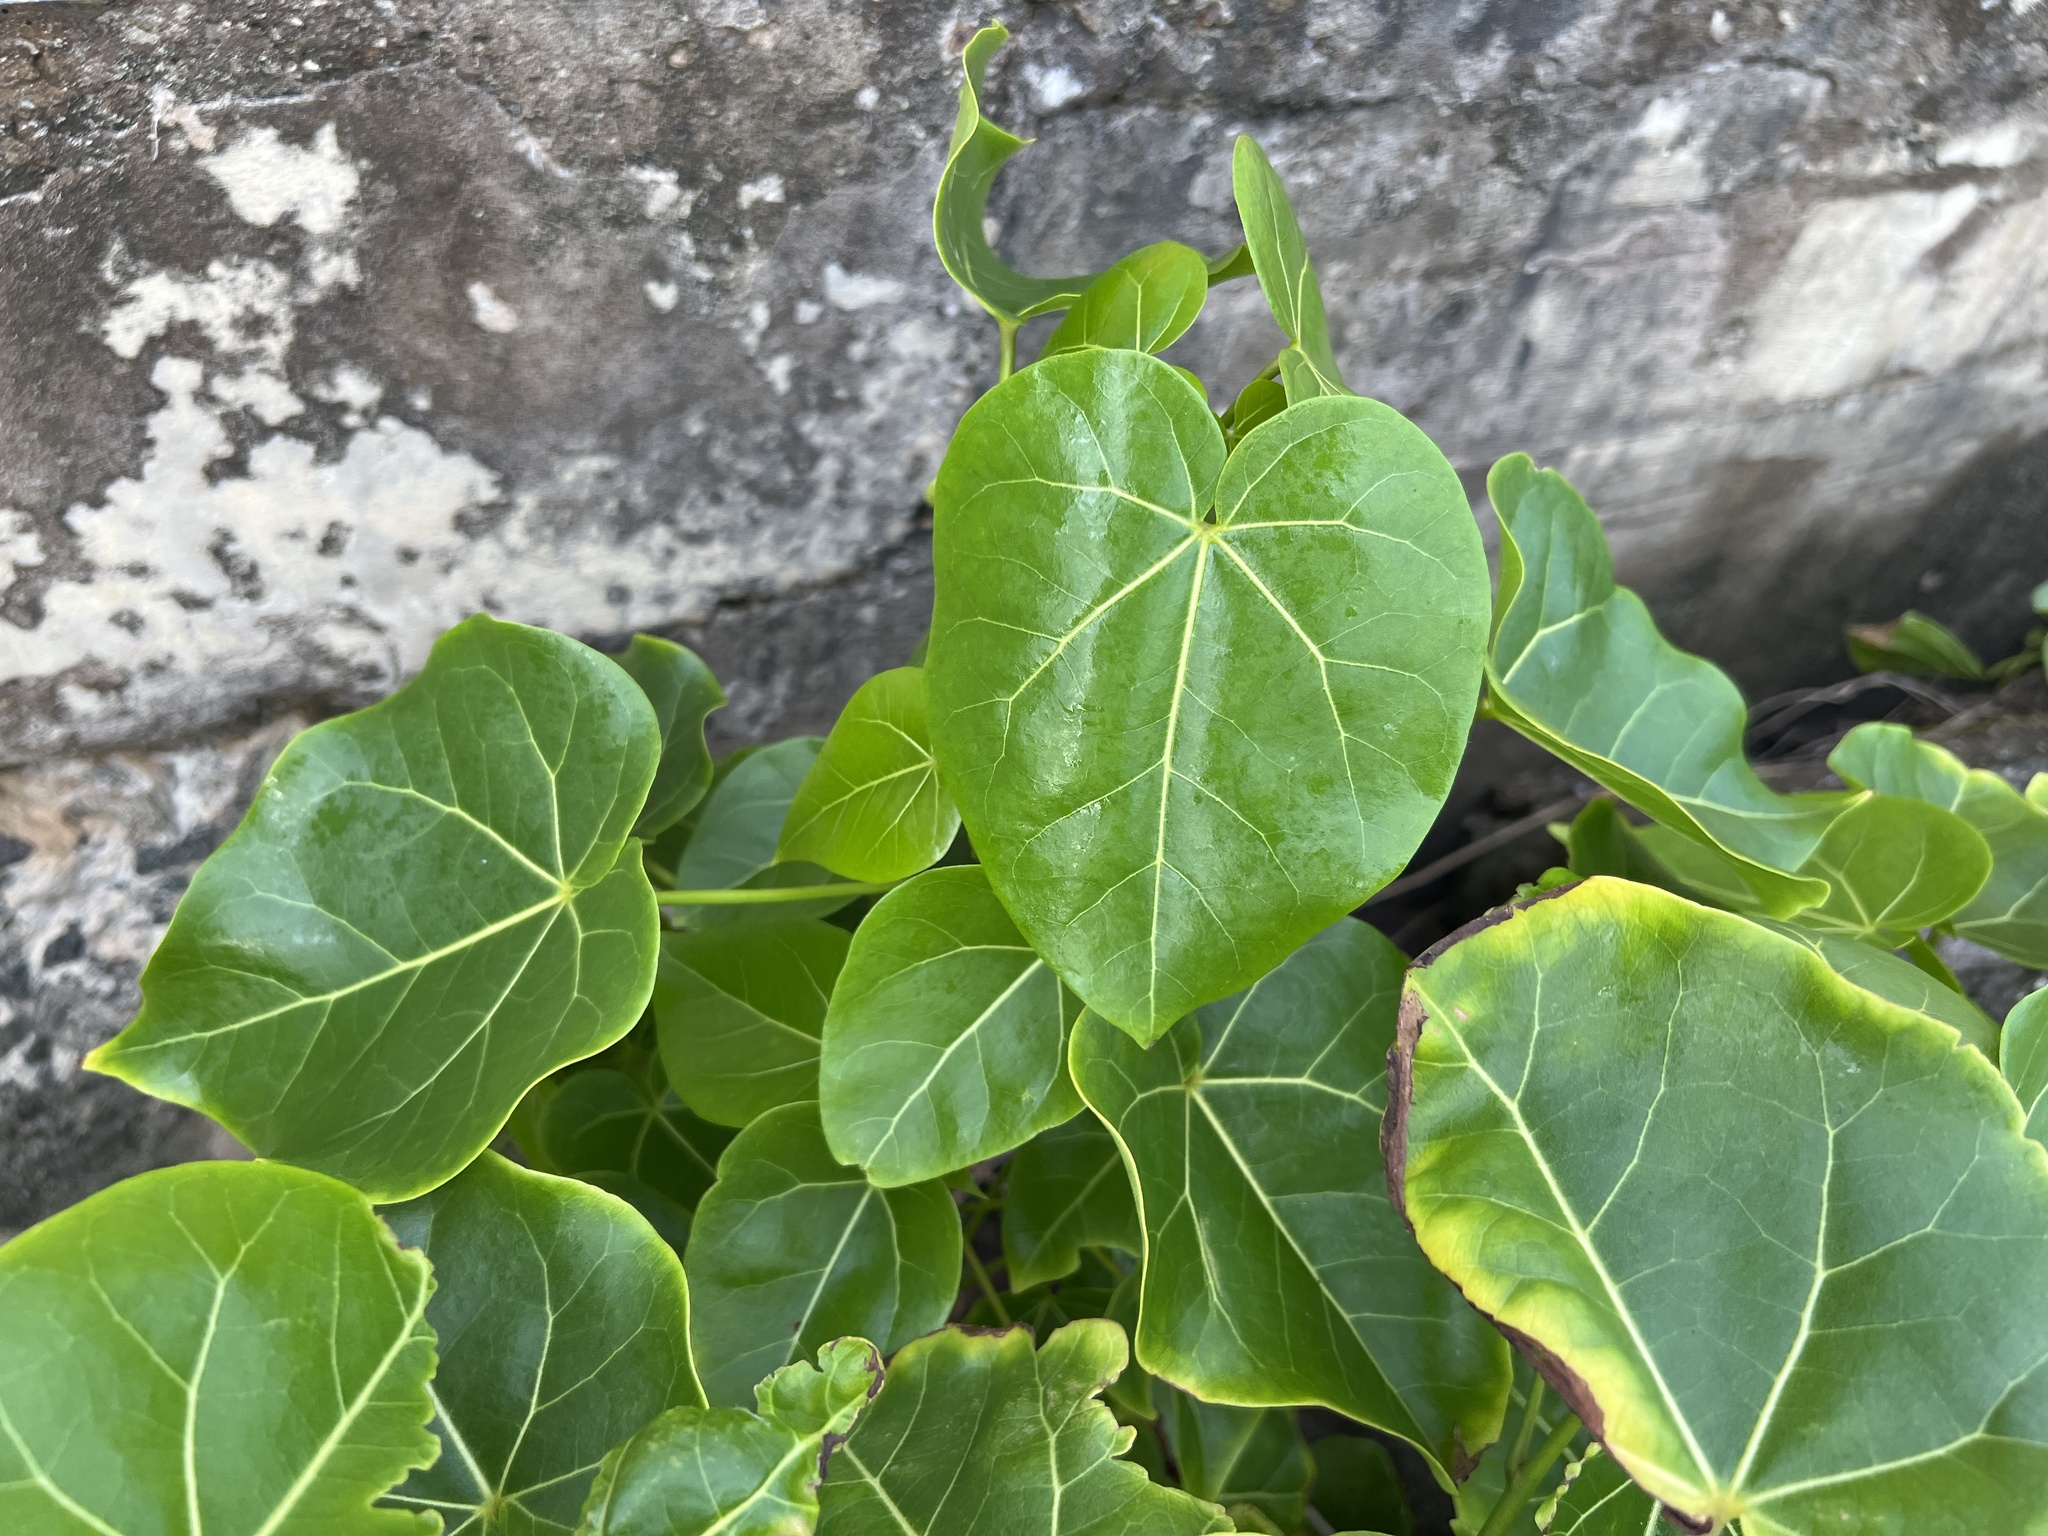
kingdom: Plantae
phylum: Tracheophyta
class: Magnoliopsida
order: Malvales
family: Malvaceae
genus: Thespesia
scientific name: Thespesia populnea
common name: Seaside mahoe
